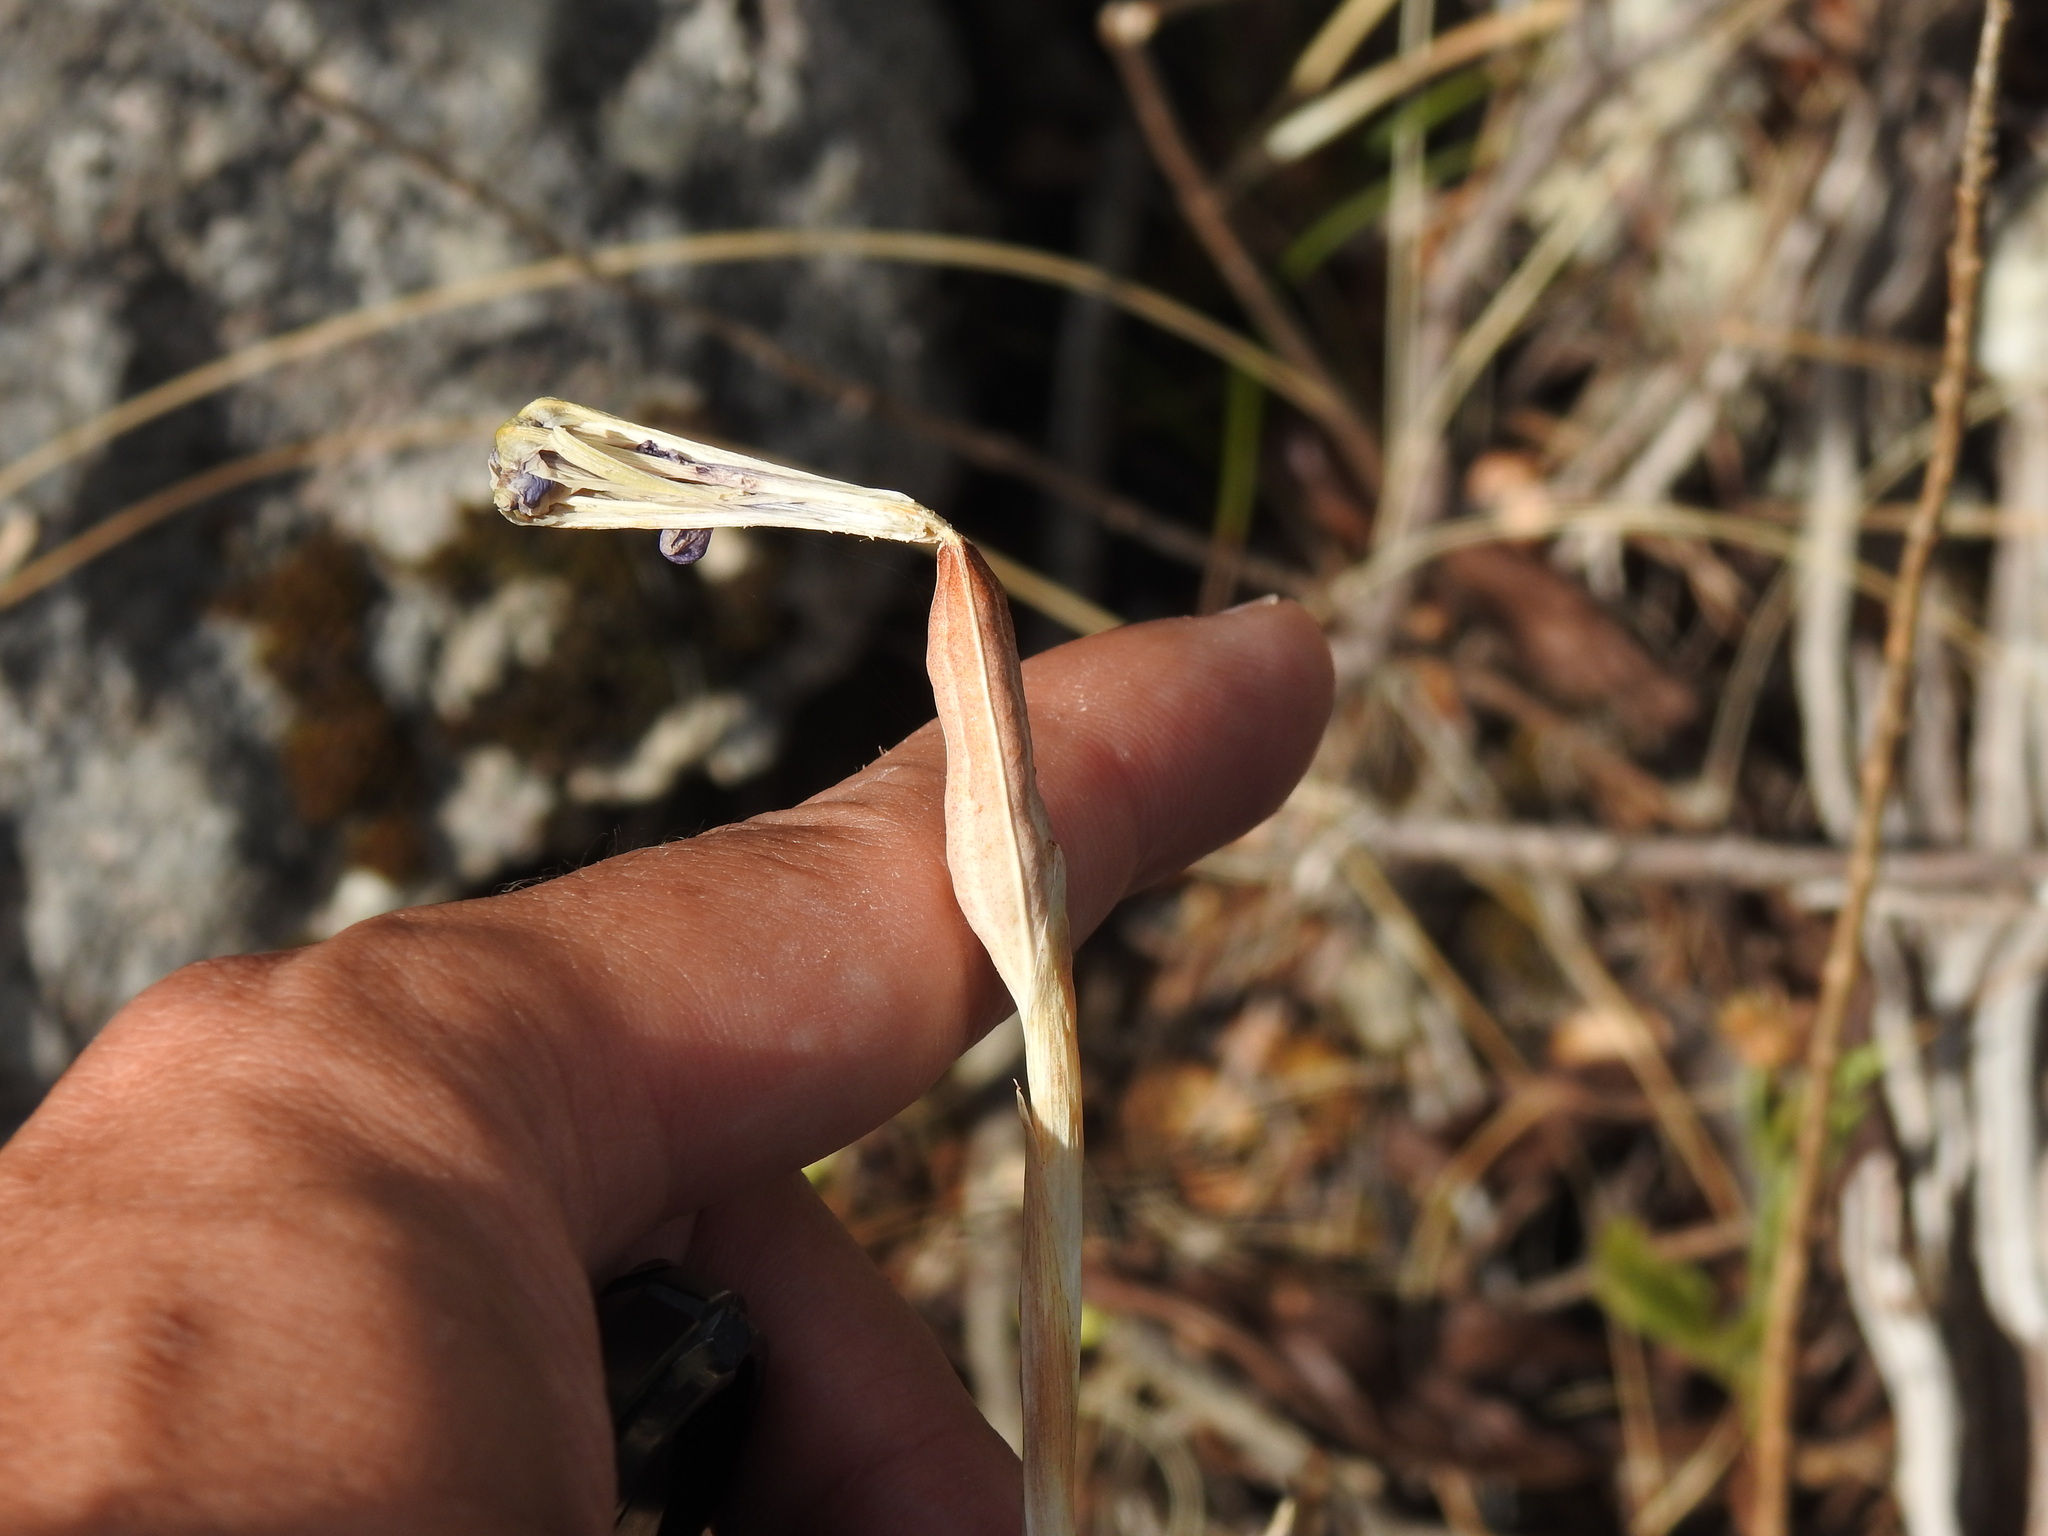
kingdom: Plantae
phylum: Tracheophyta
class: Liliopsida
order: Asparagales
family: Iridaceae
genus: Iris
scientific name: Iris xiphium
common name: Spanish iris
